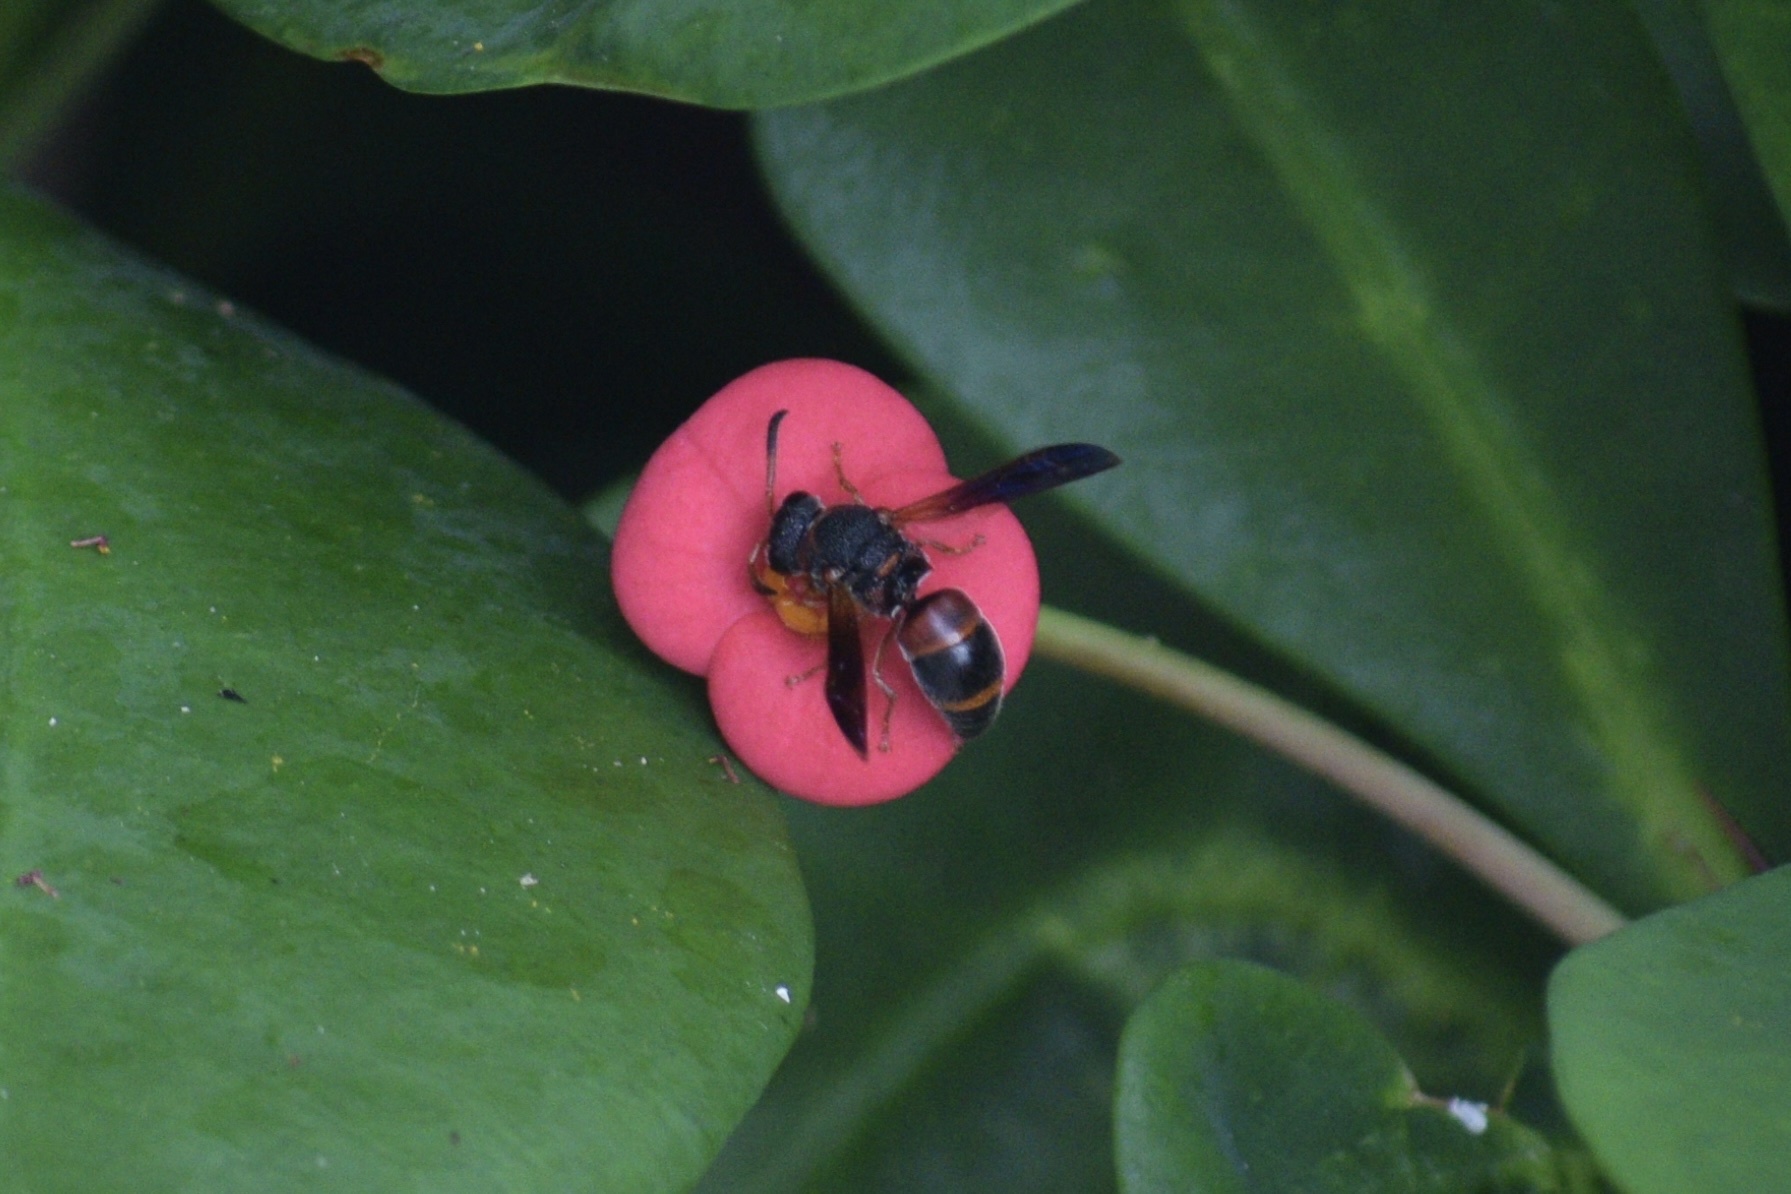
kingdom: Animalia
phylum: Arthropoda
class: Insecta
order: Hymenoptera
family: Eumenidae
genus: Pachodynerus
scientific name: Pachodynerus erynnis
